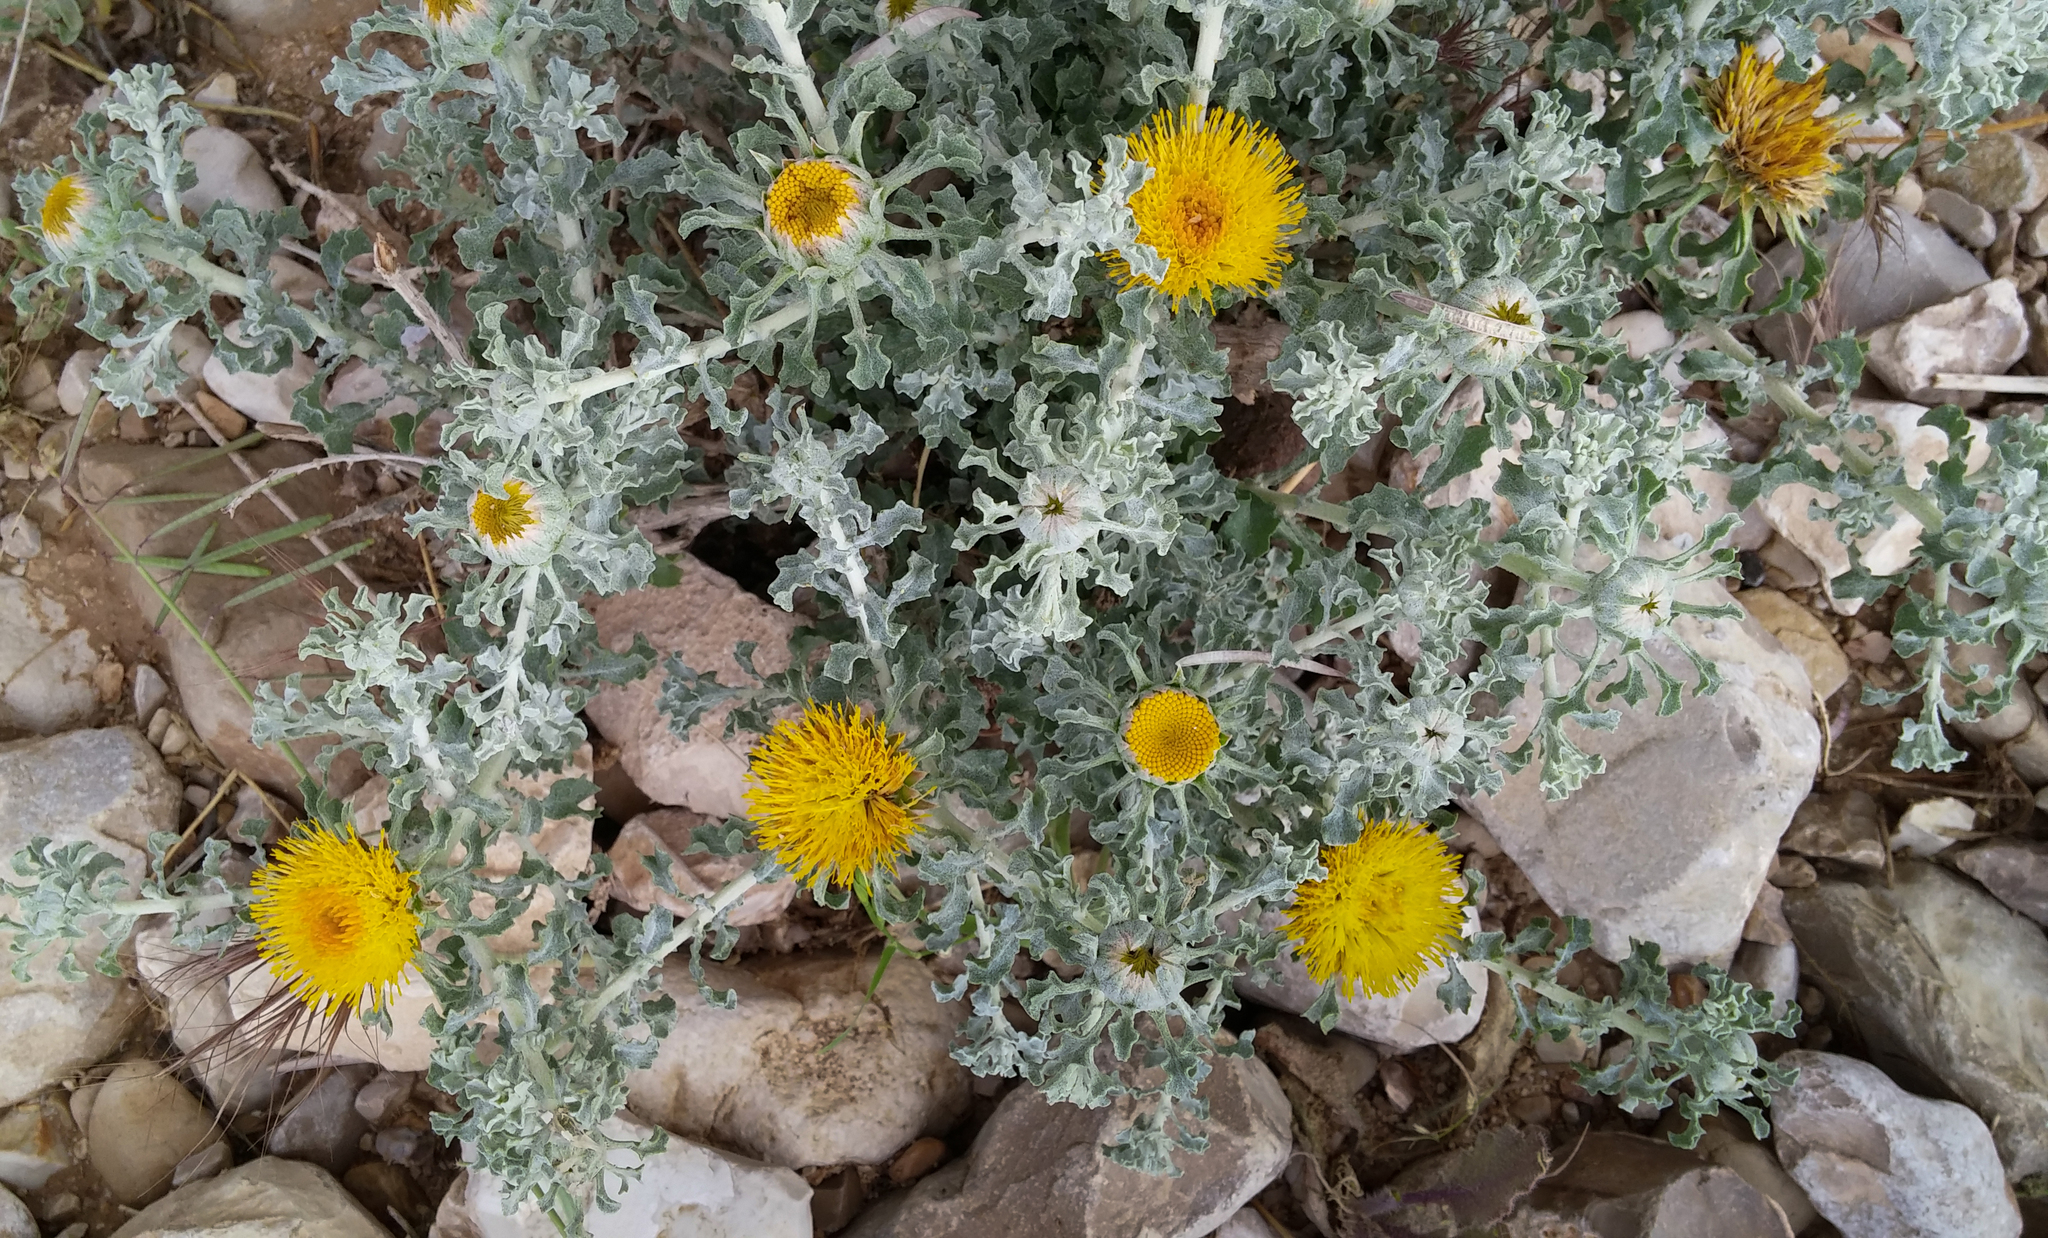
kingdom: Plantae
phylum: Tracheophyta
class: Magnoliopsida
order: Asterales
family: Asteraceae
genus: Anvillea
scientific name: Anvillea garcinii
